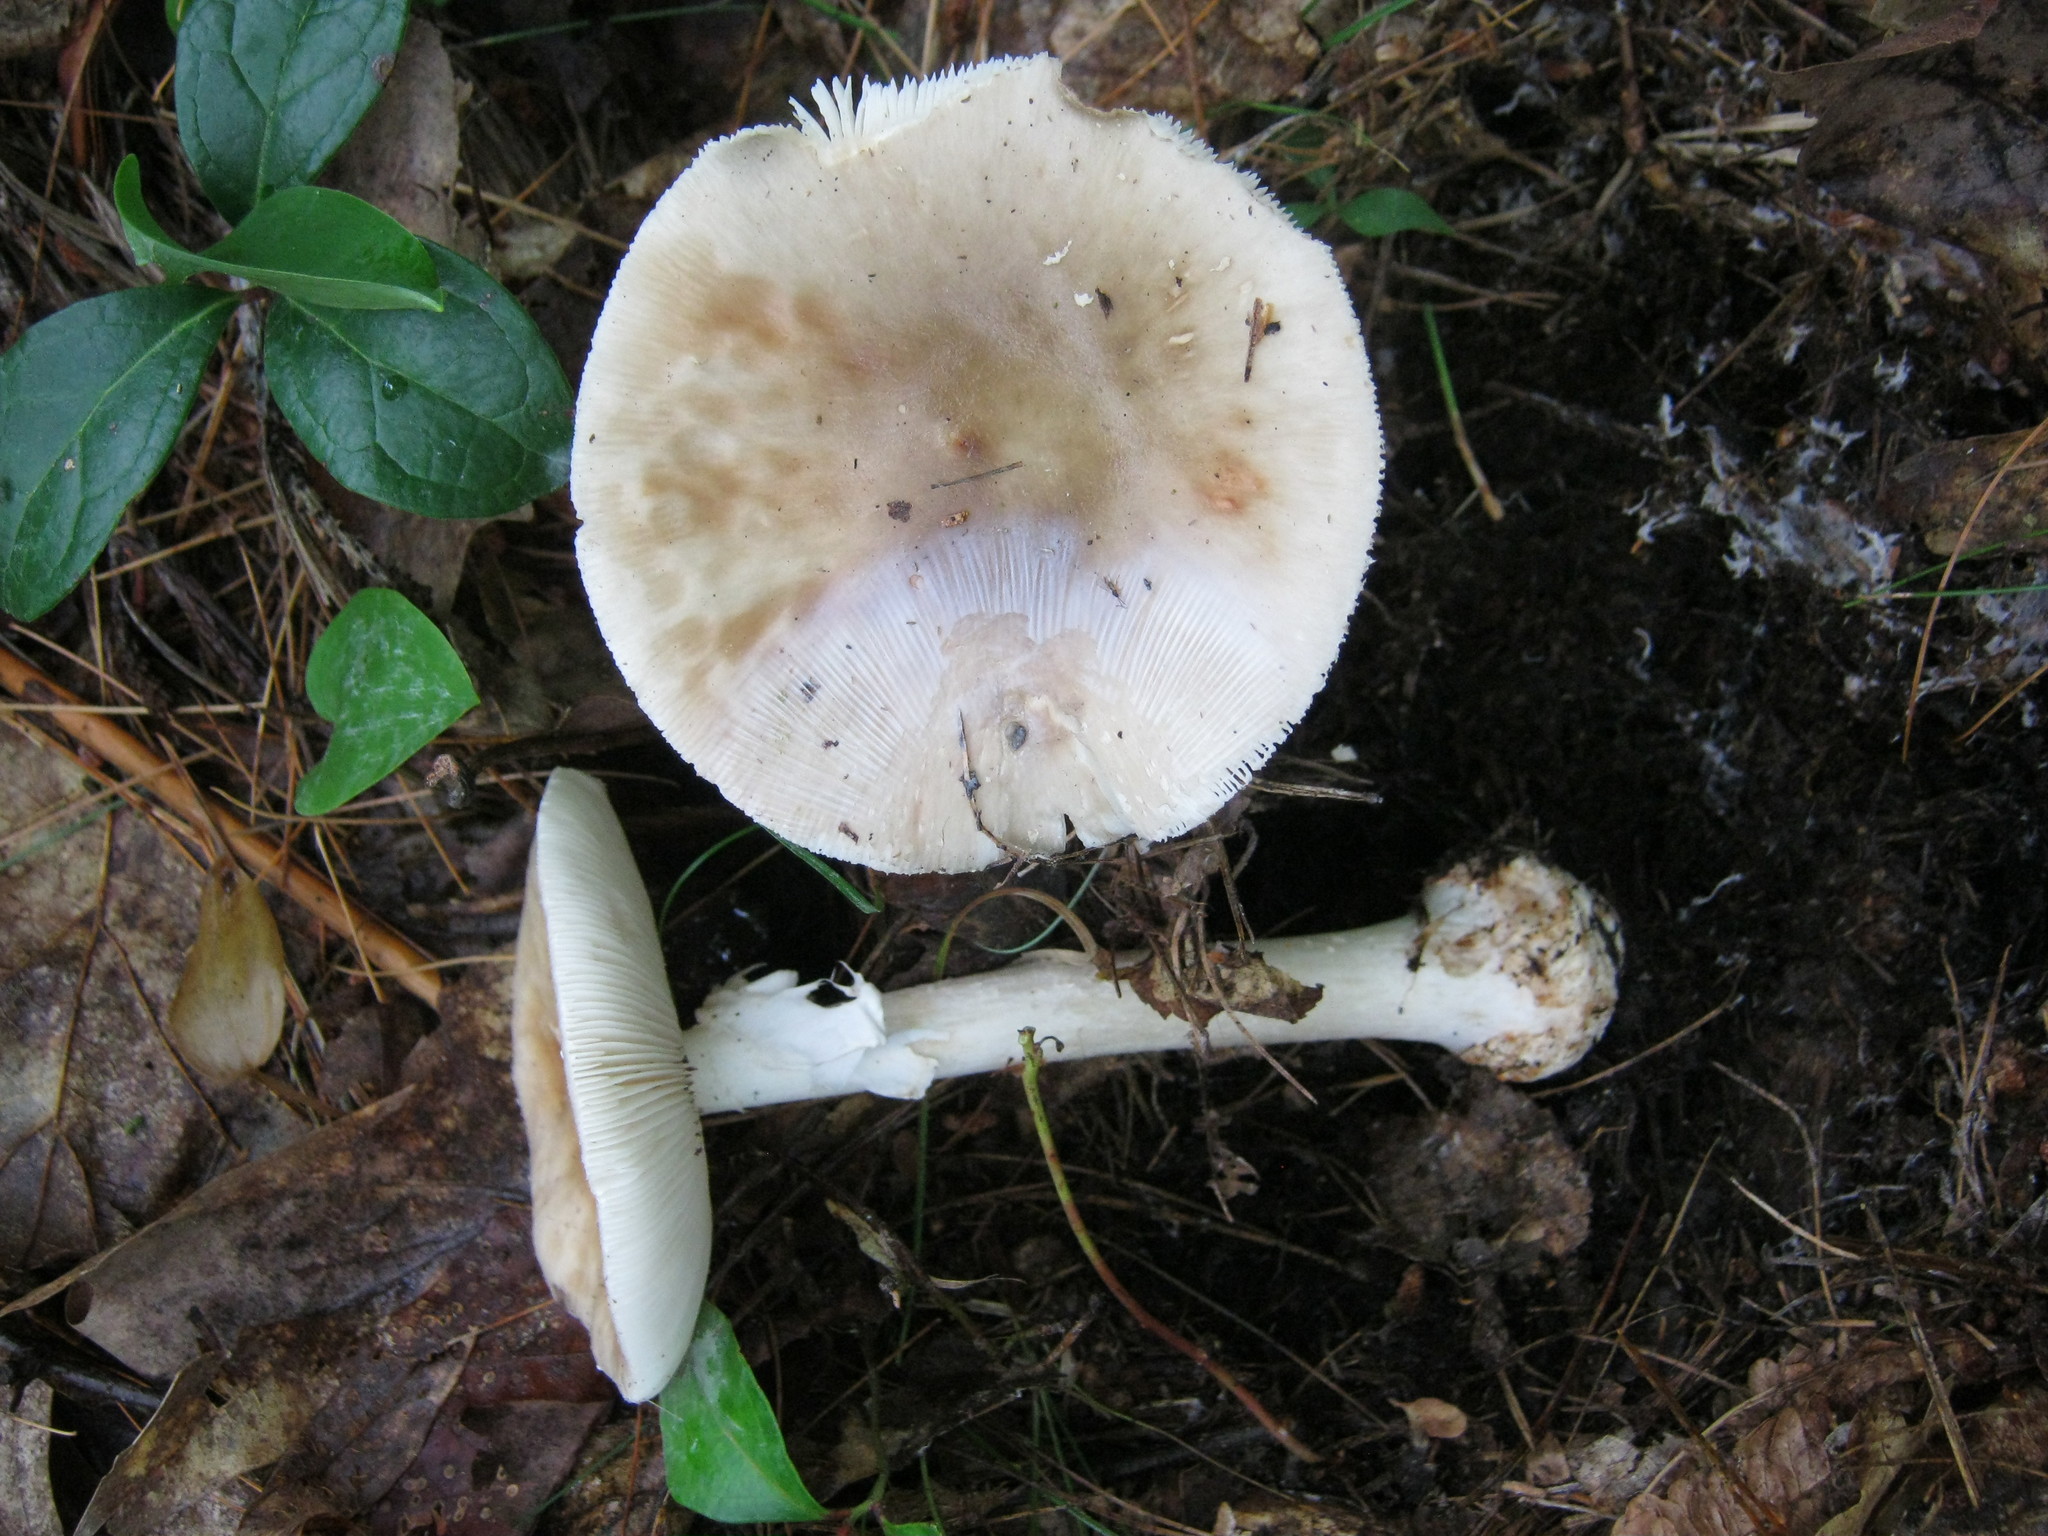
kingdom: Fungi
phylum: Basidiomycota
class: Agaricomycetes
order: Agaricales
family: Amanitaceae
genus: Amanita
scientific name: Amanita submaculata
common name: Ball gown amanita
